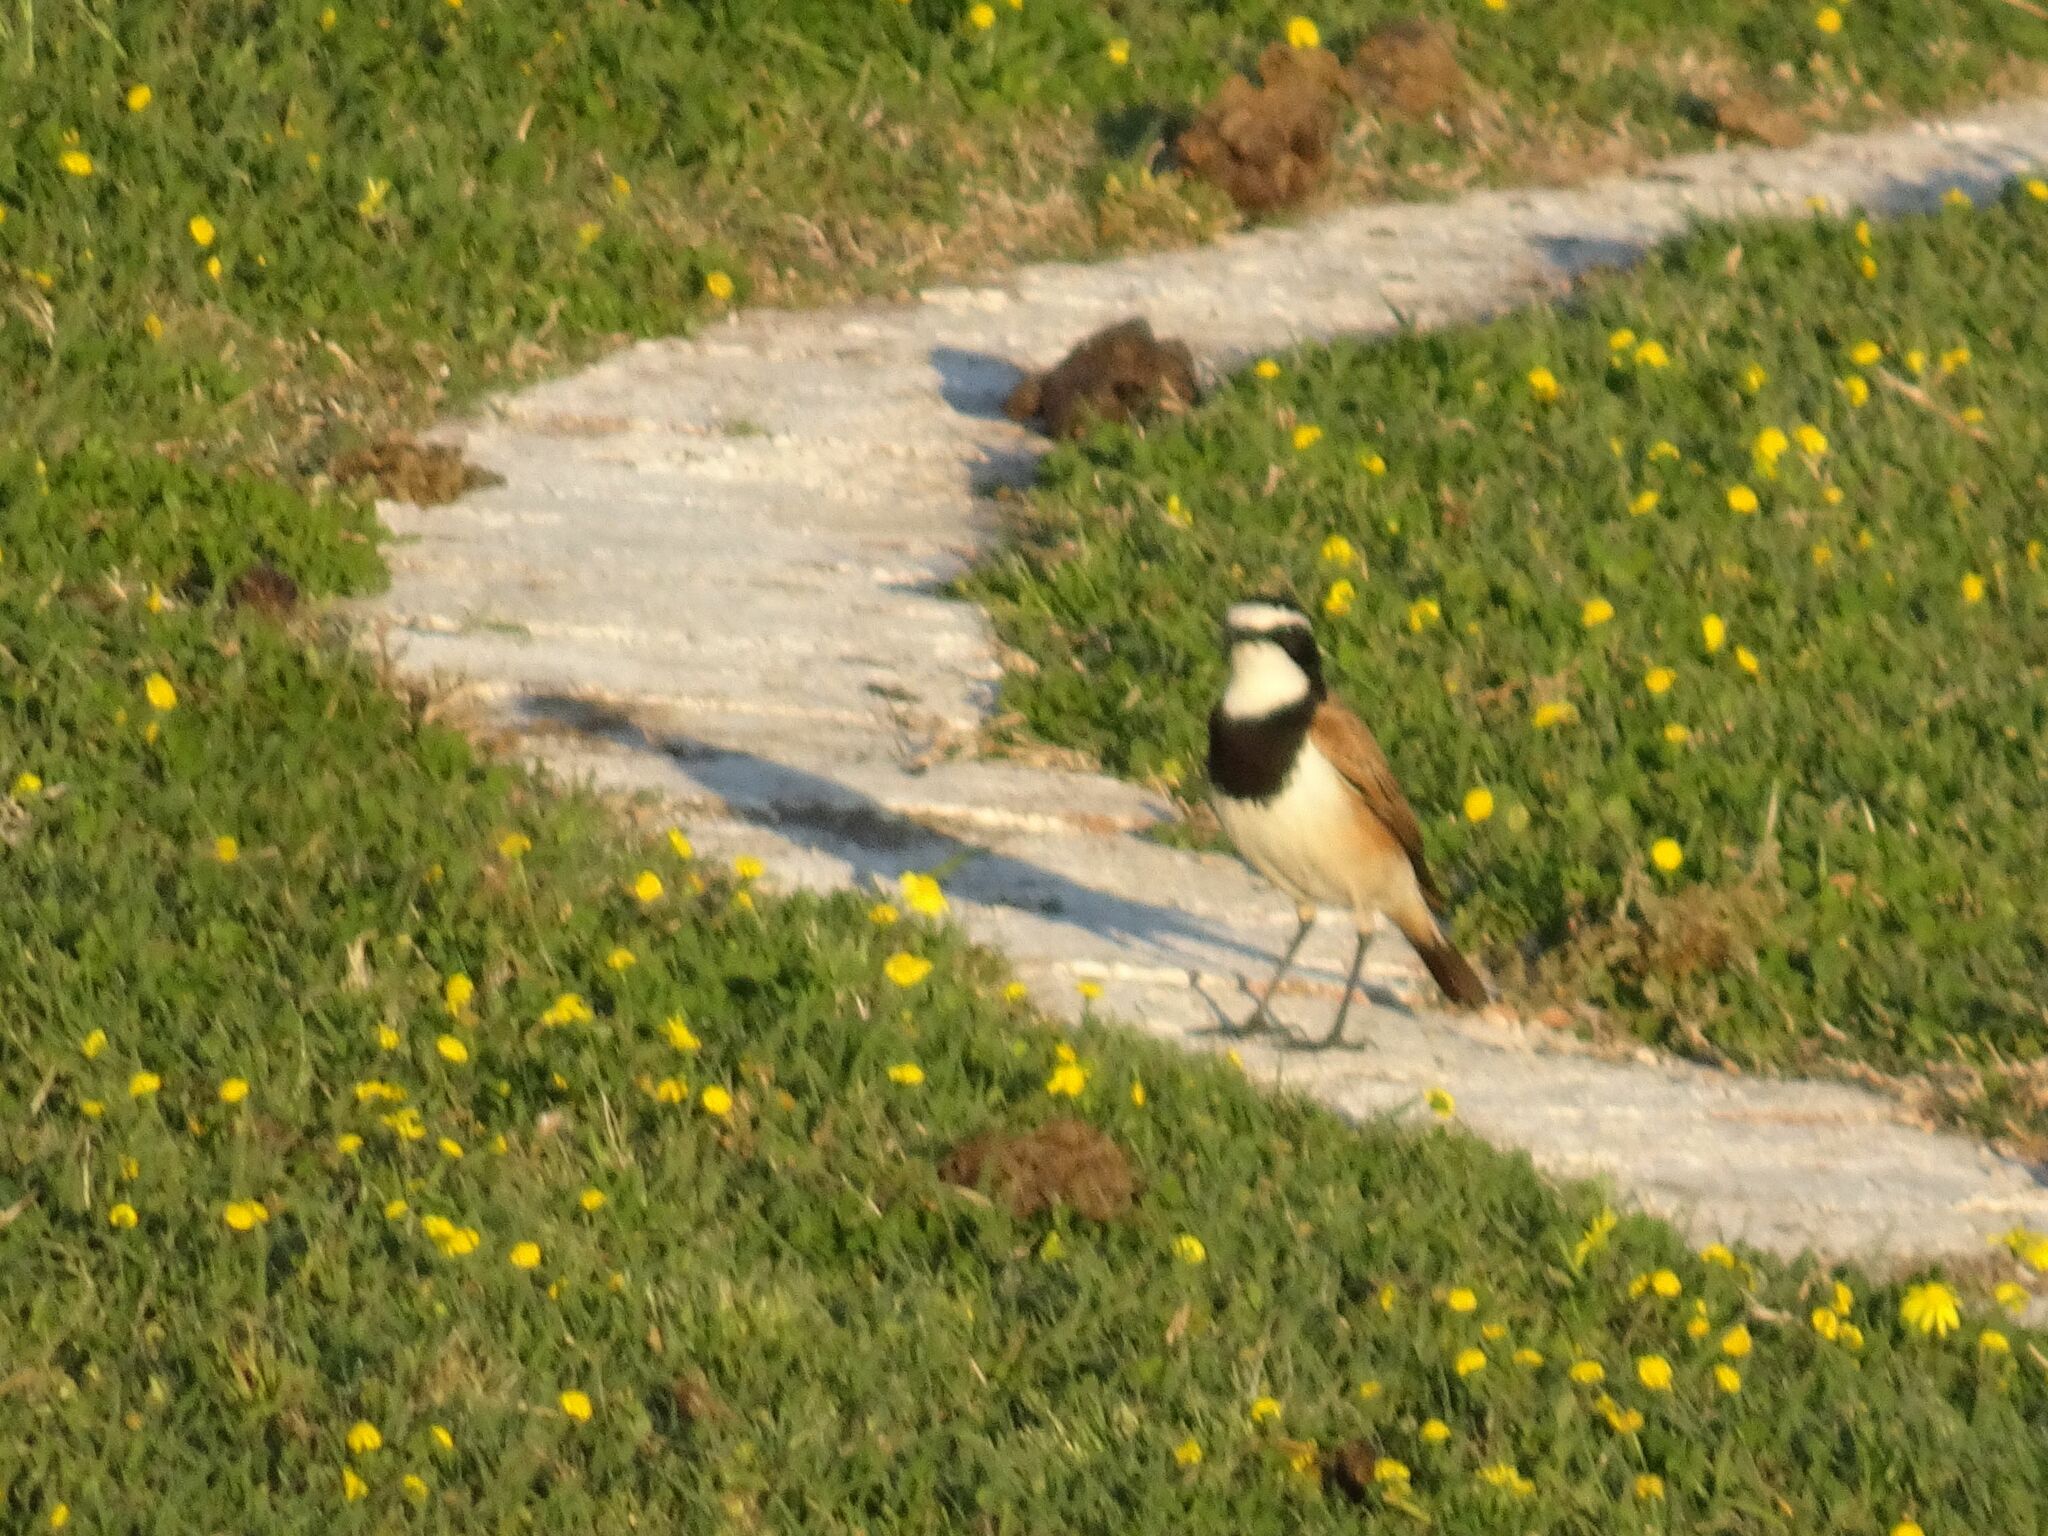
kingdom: Animalia
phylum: Chordata
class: Aves
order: Passeriformes
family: Muscicapidae
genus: Oenanthe
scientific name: Oenanthe pileata
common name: Capped wheatear
